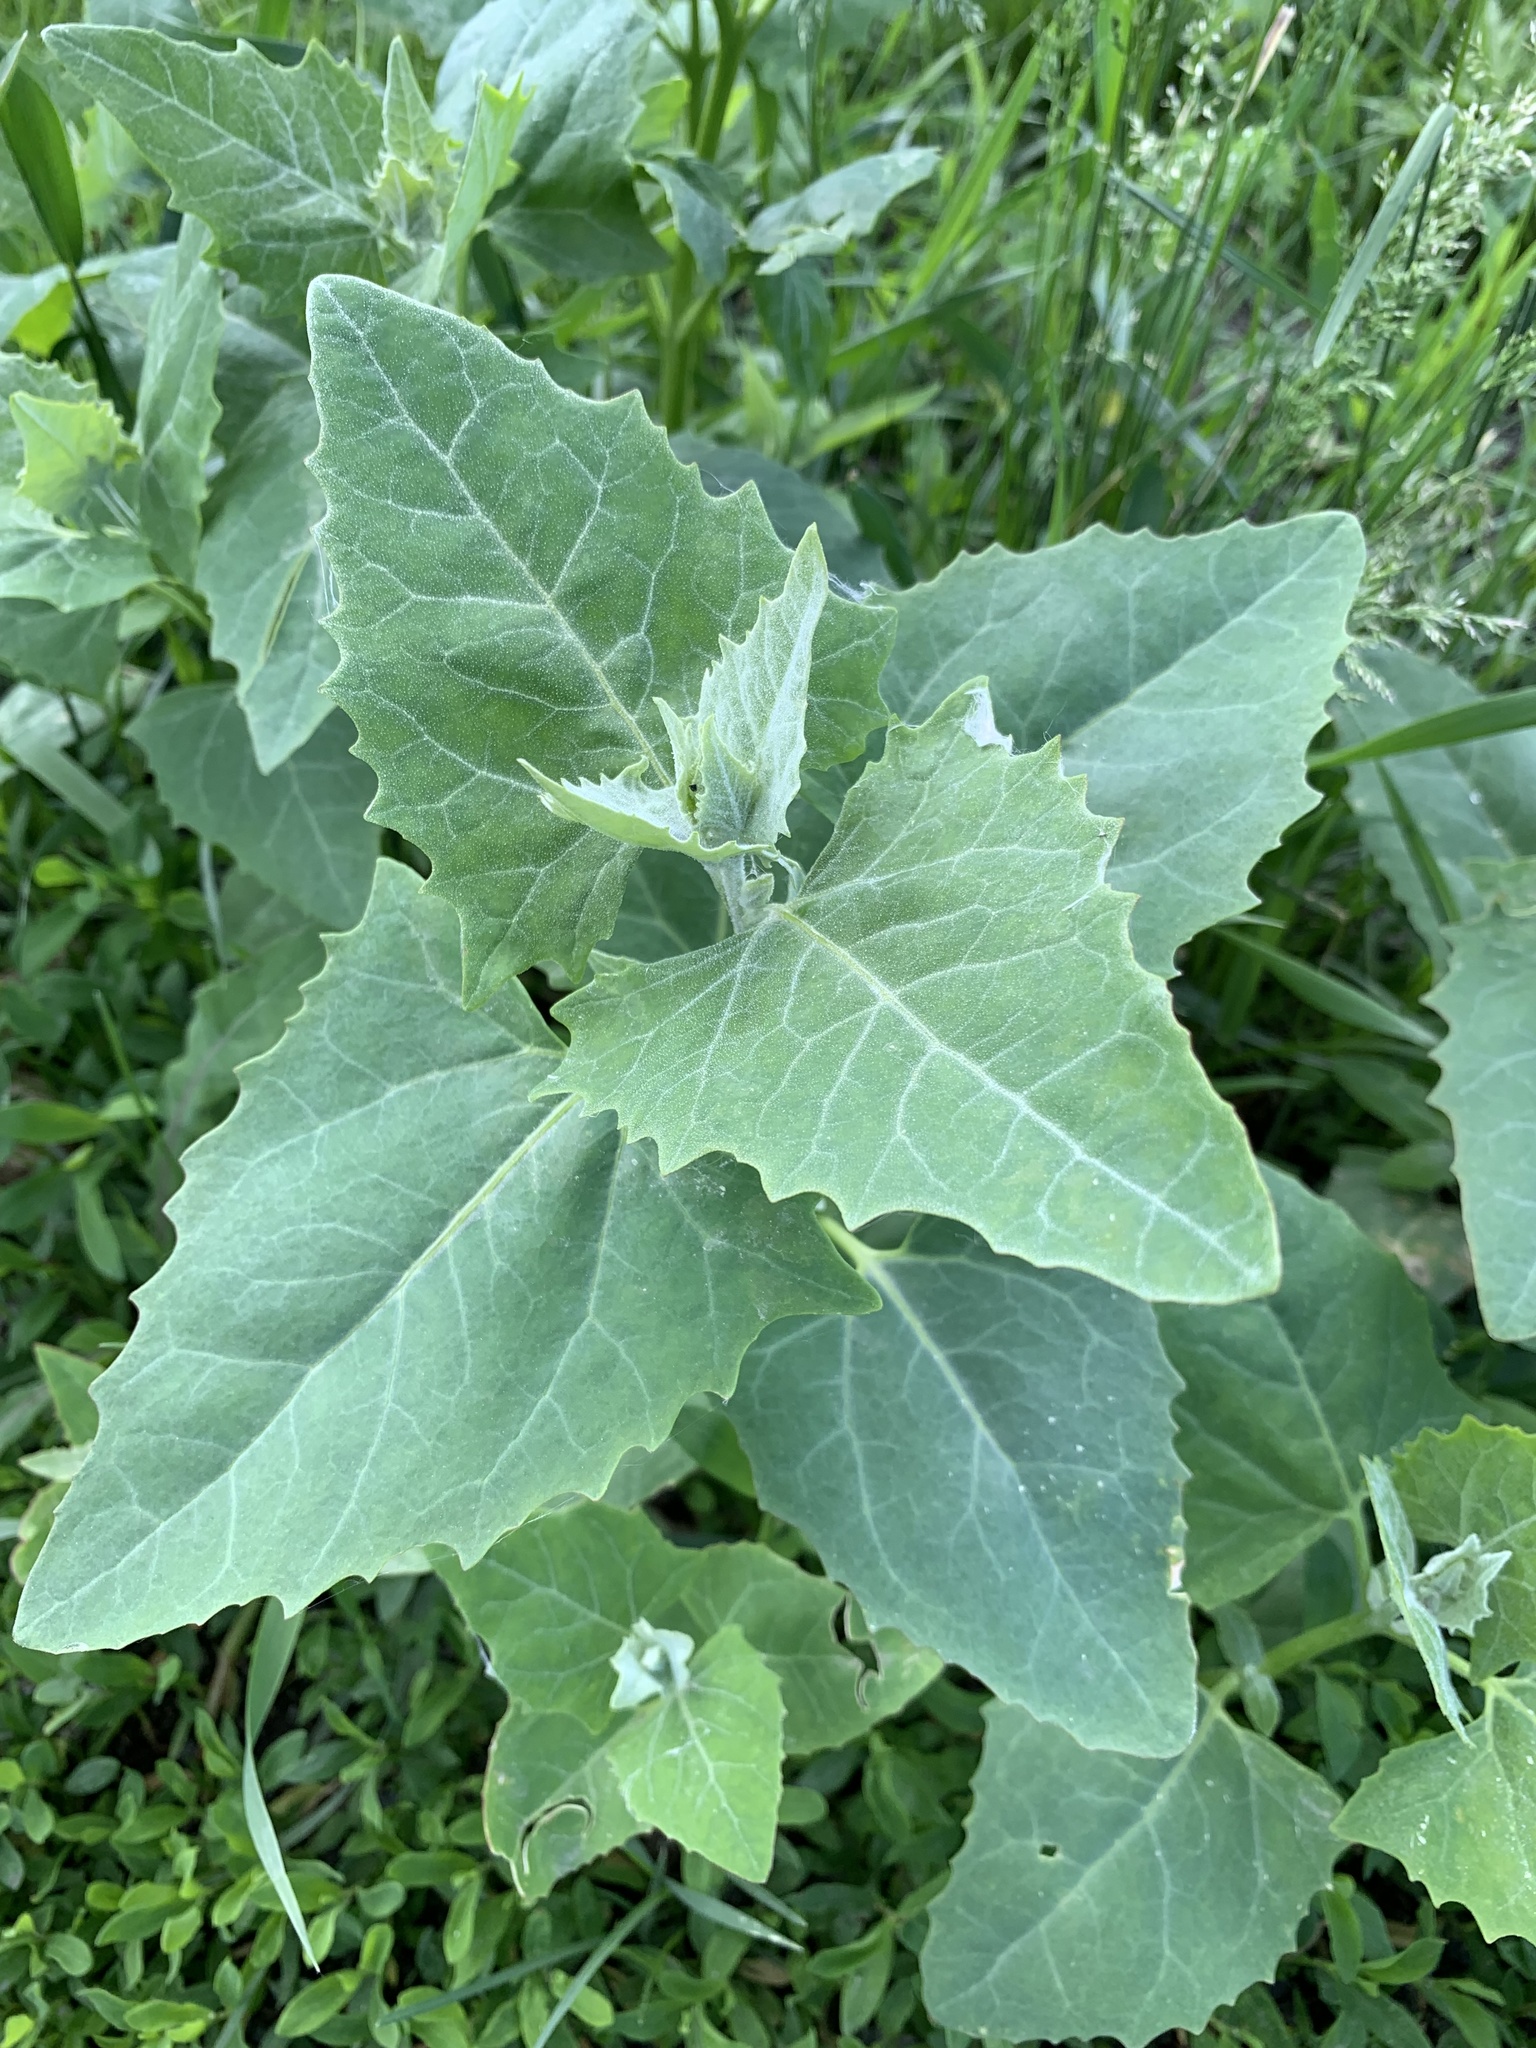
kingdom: Plantae
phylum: Tracheophyta
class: Magnoliopsida
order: Caryophyllales
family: Amaranthaceae
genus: Atriplex
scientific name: Atriplex sagittata
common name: Purple orache
